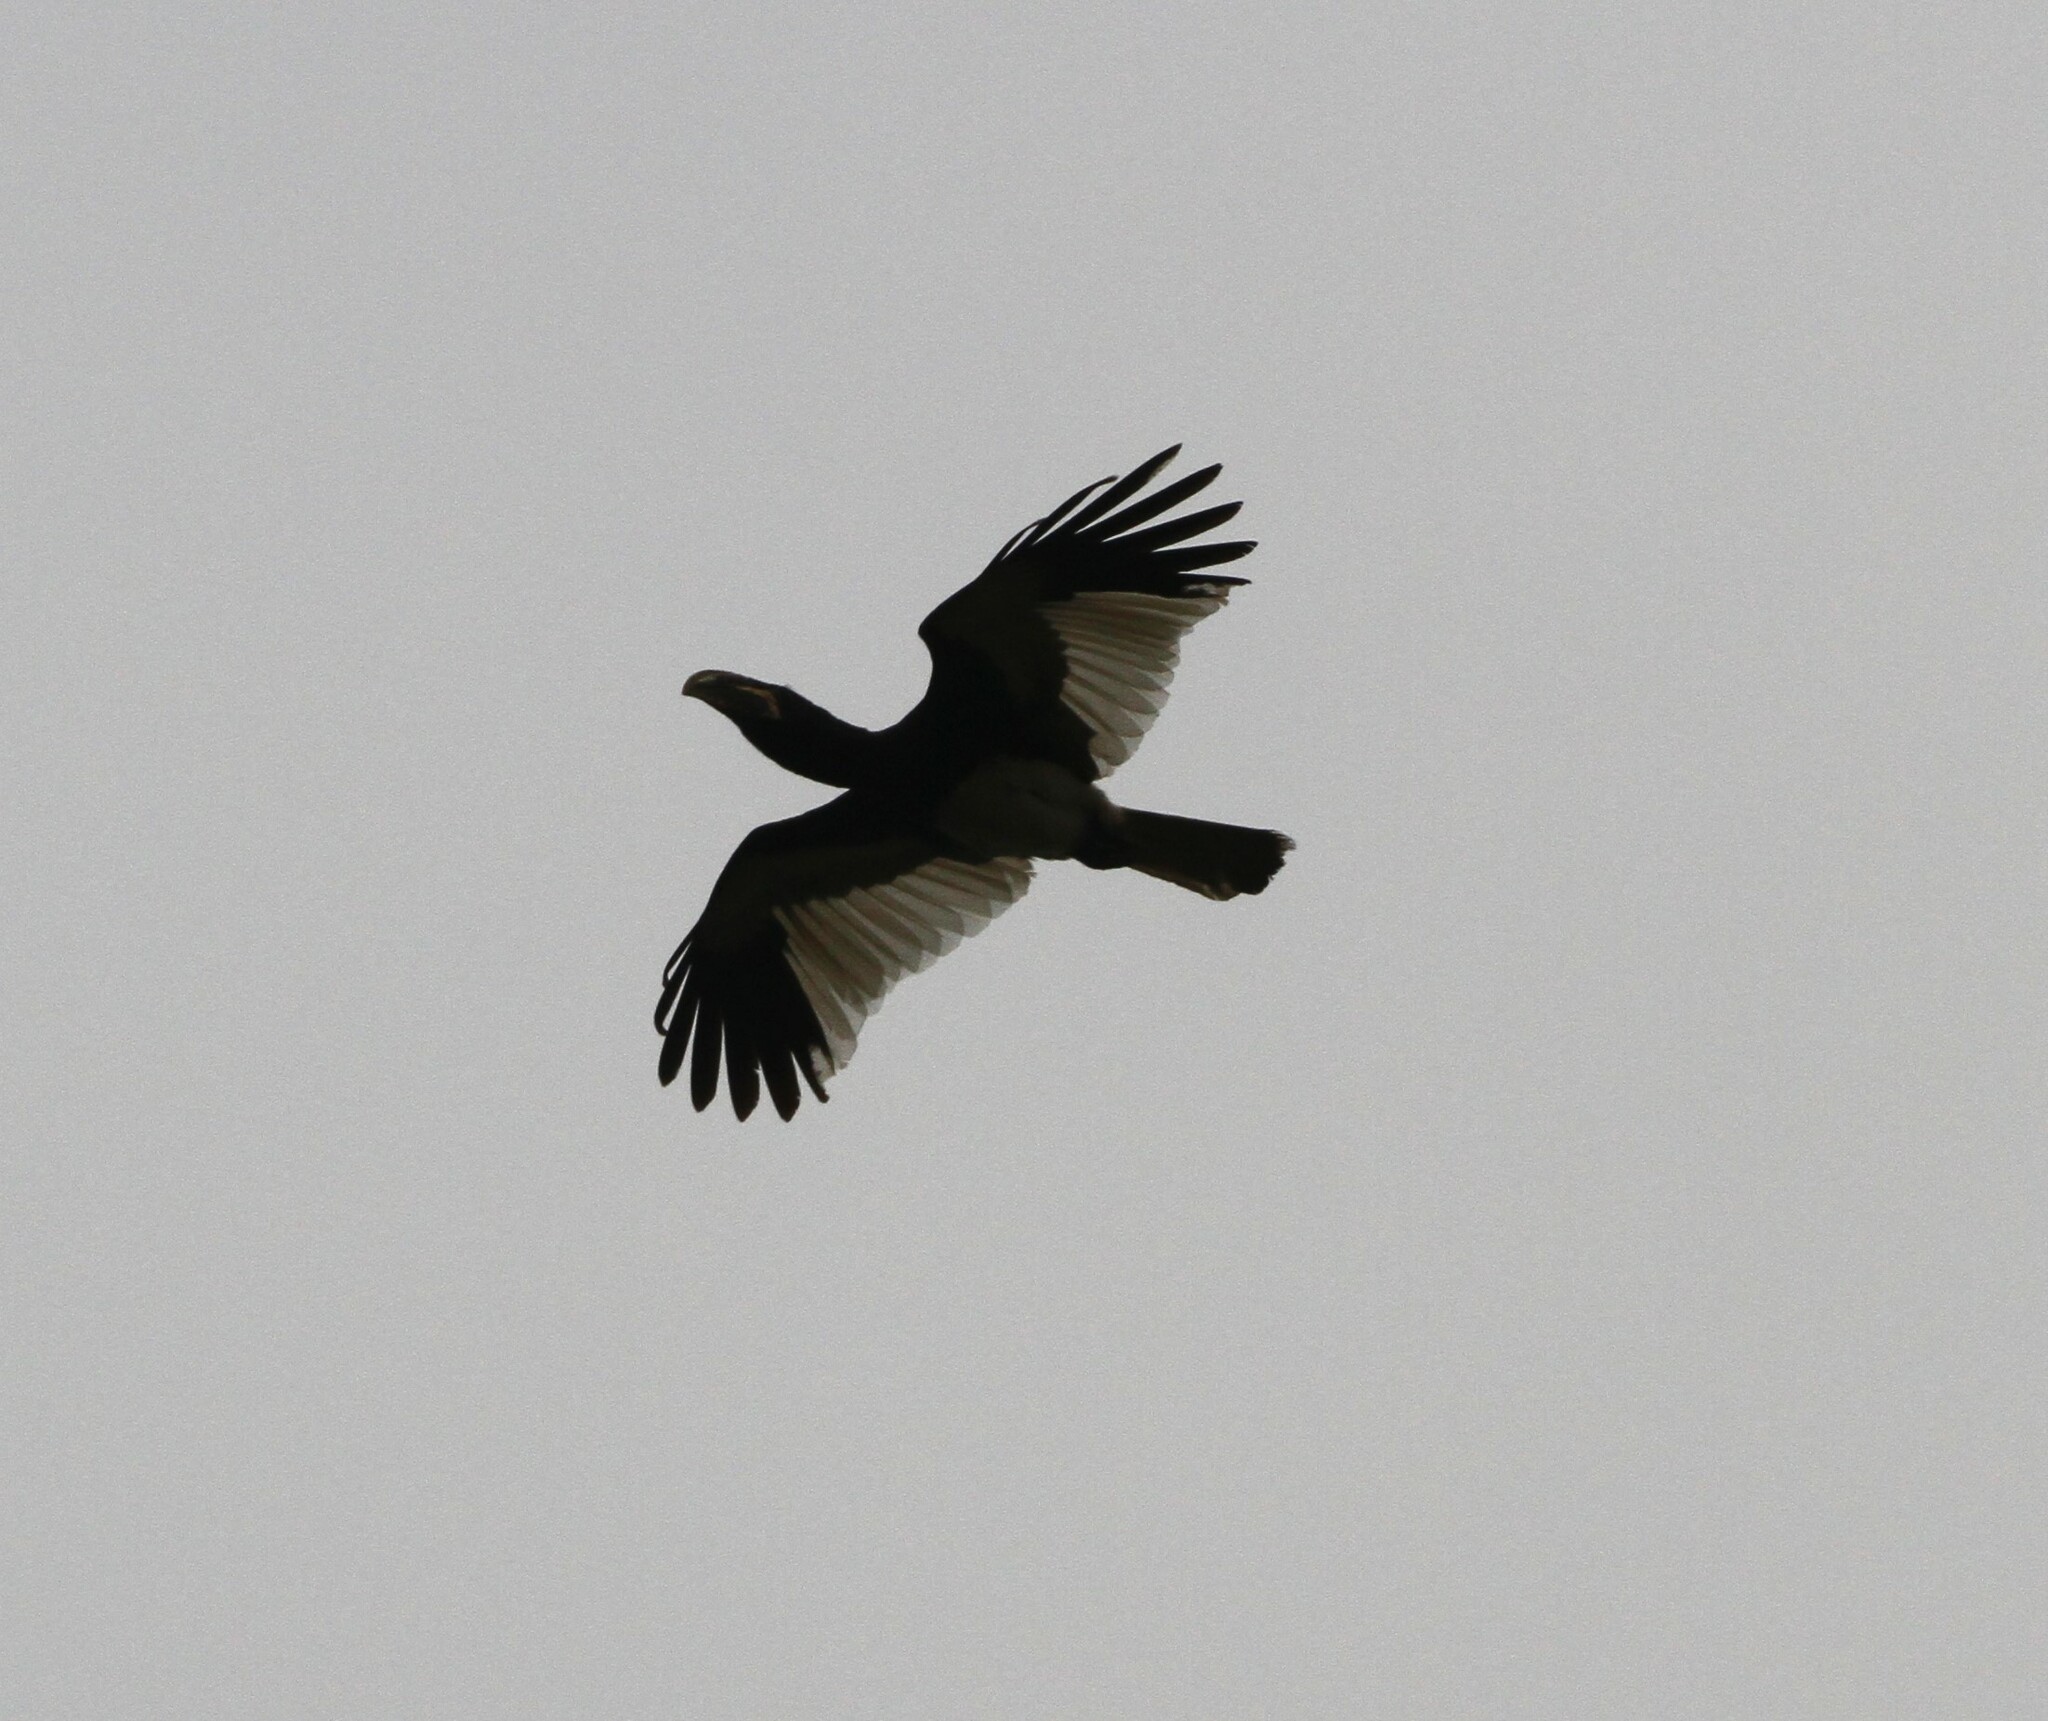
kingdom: Animalia
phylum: Chordata
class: Aves
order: Bucerotiformes
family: Bucerotidae
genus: Bycanistes
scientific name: Bycanistes fistulator
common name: Piping hornbill
